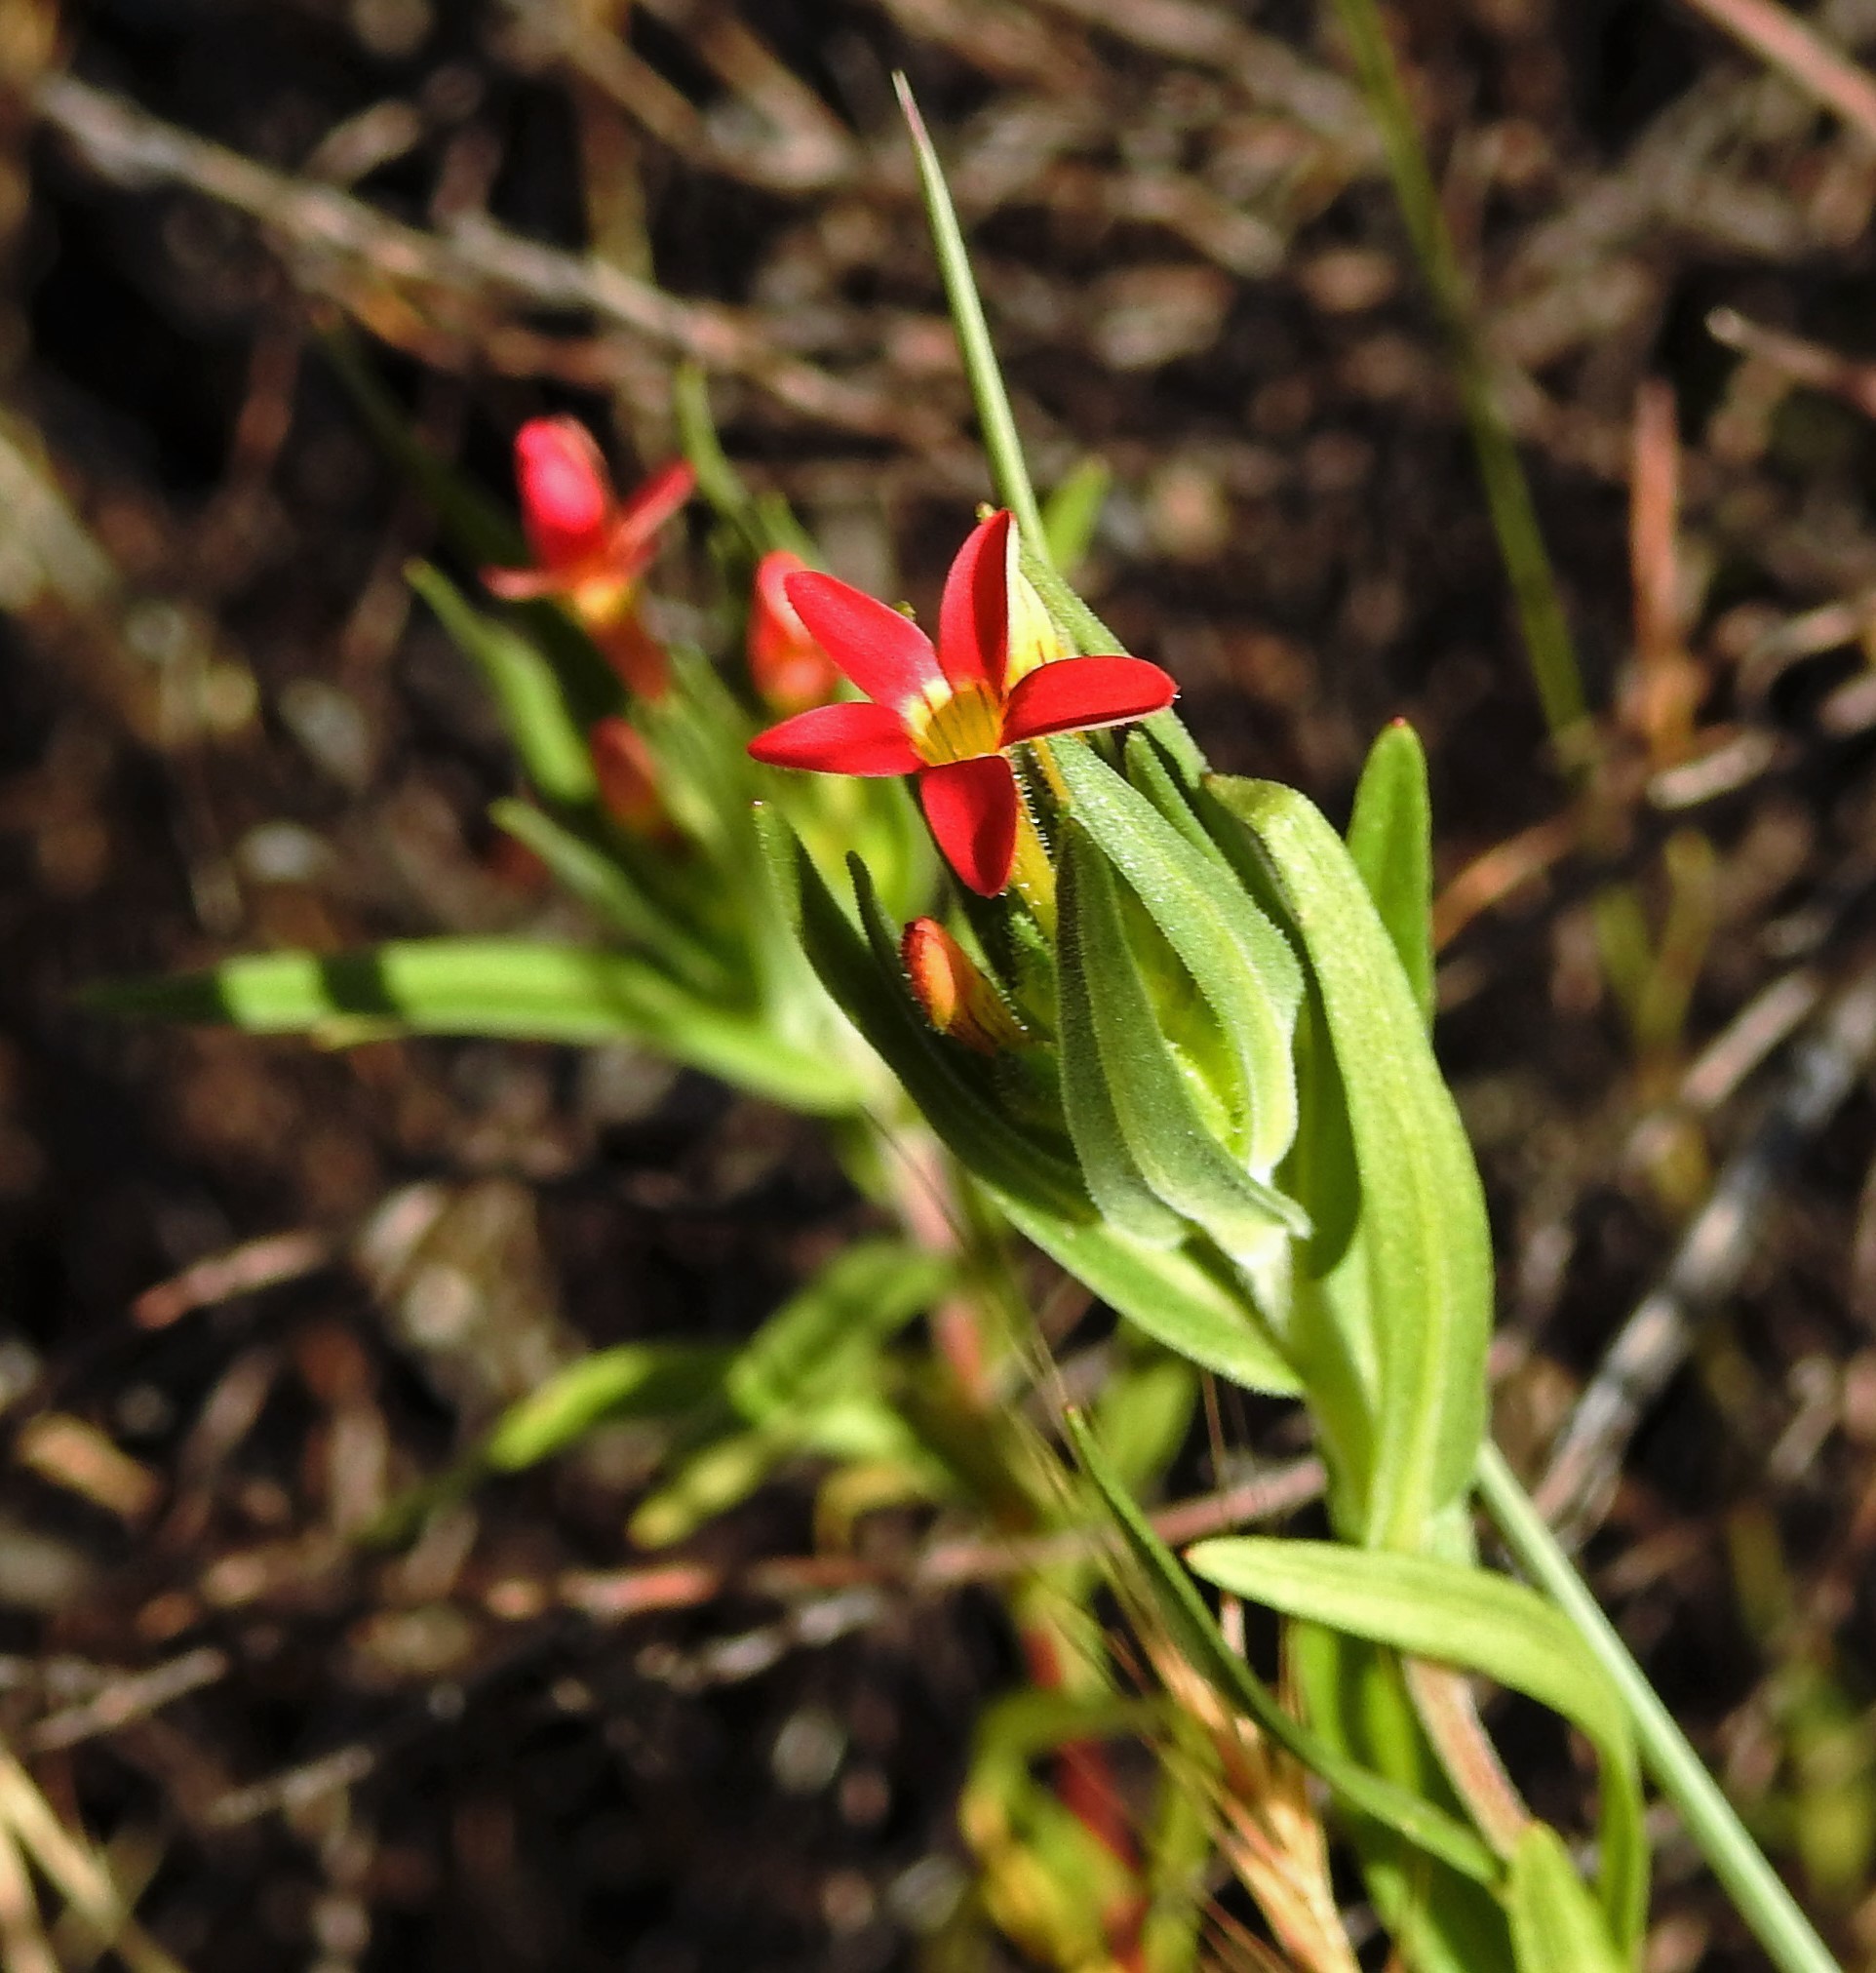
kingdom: Plantae
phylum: Tracheophyta
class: Magnoliopsida
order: Ericales
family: Polemoniaceae
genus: Collomia
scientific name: Collomia biflora
